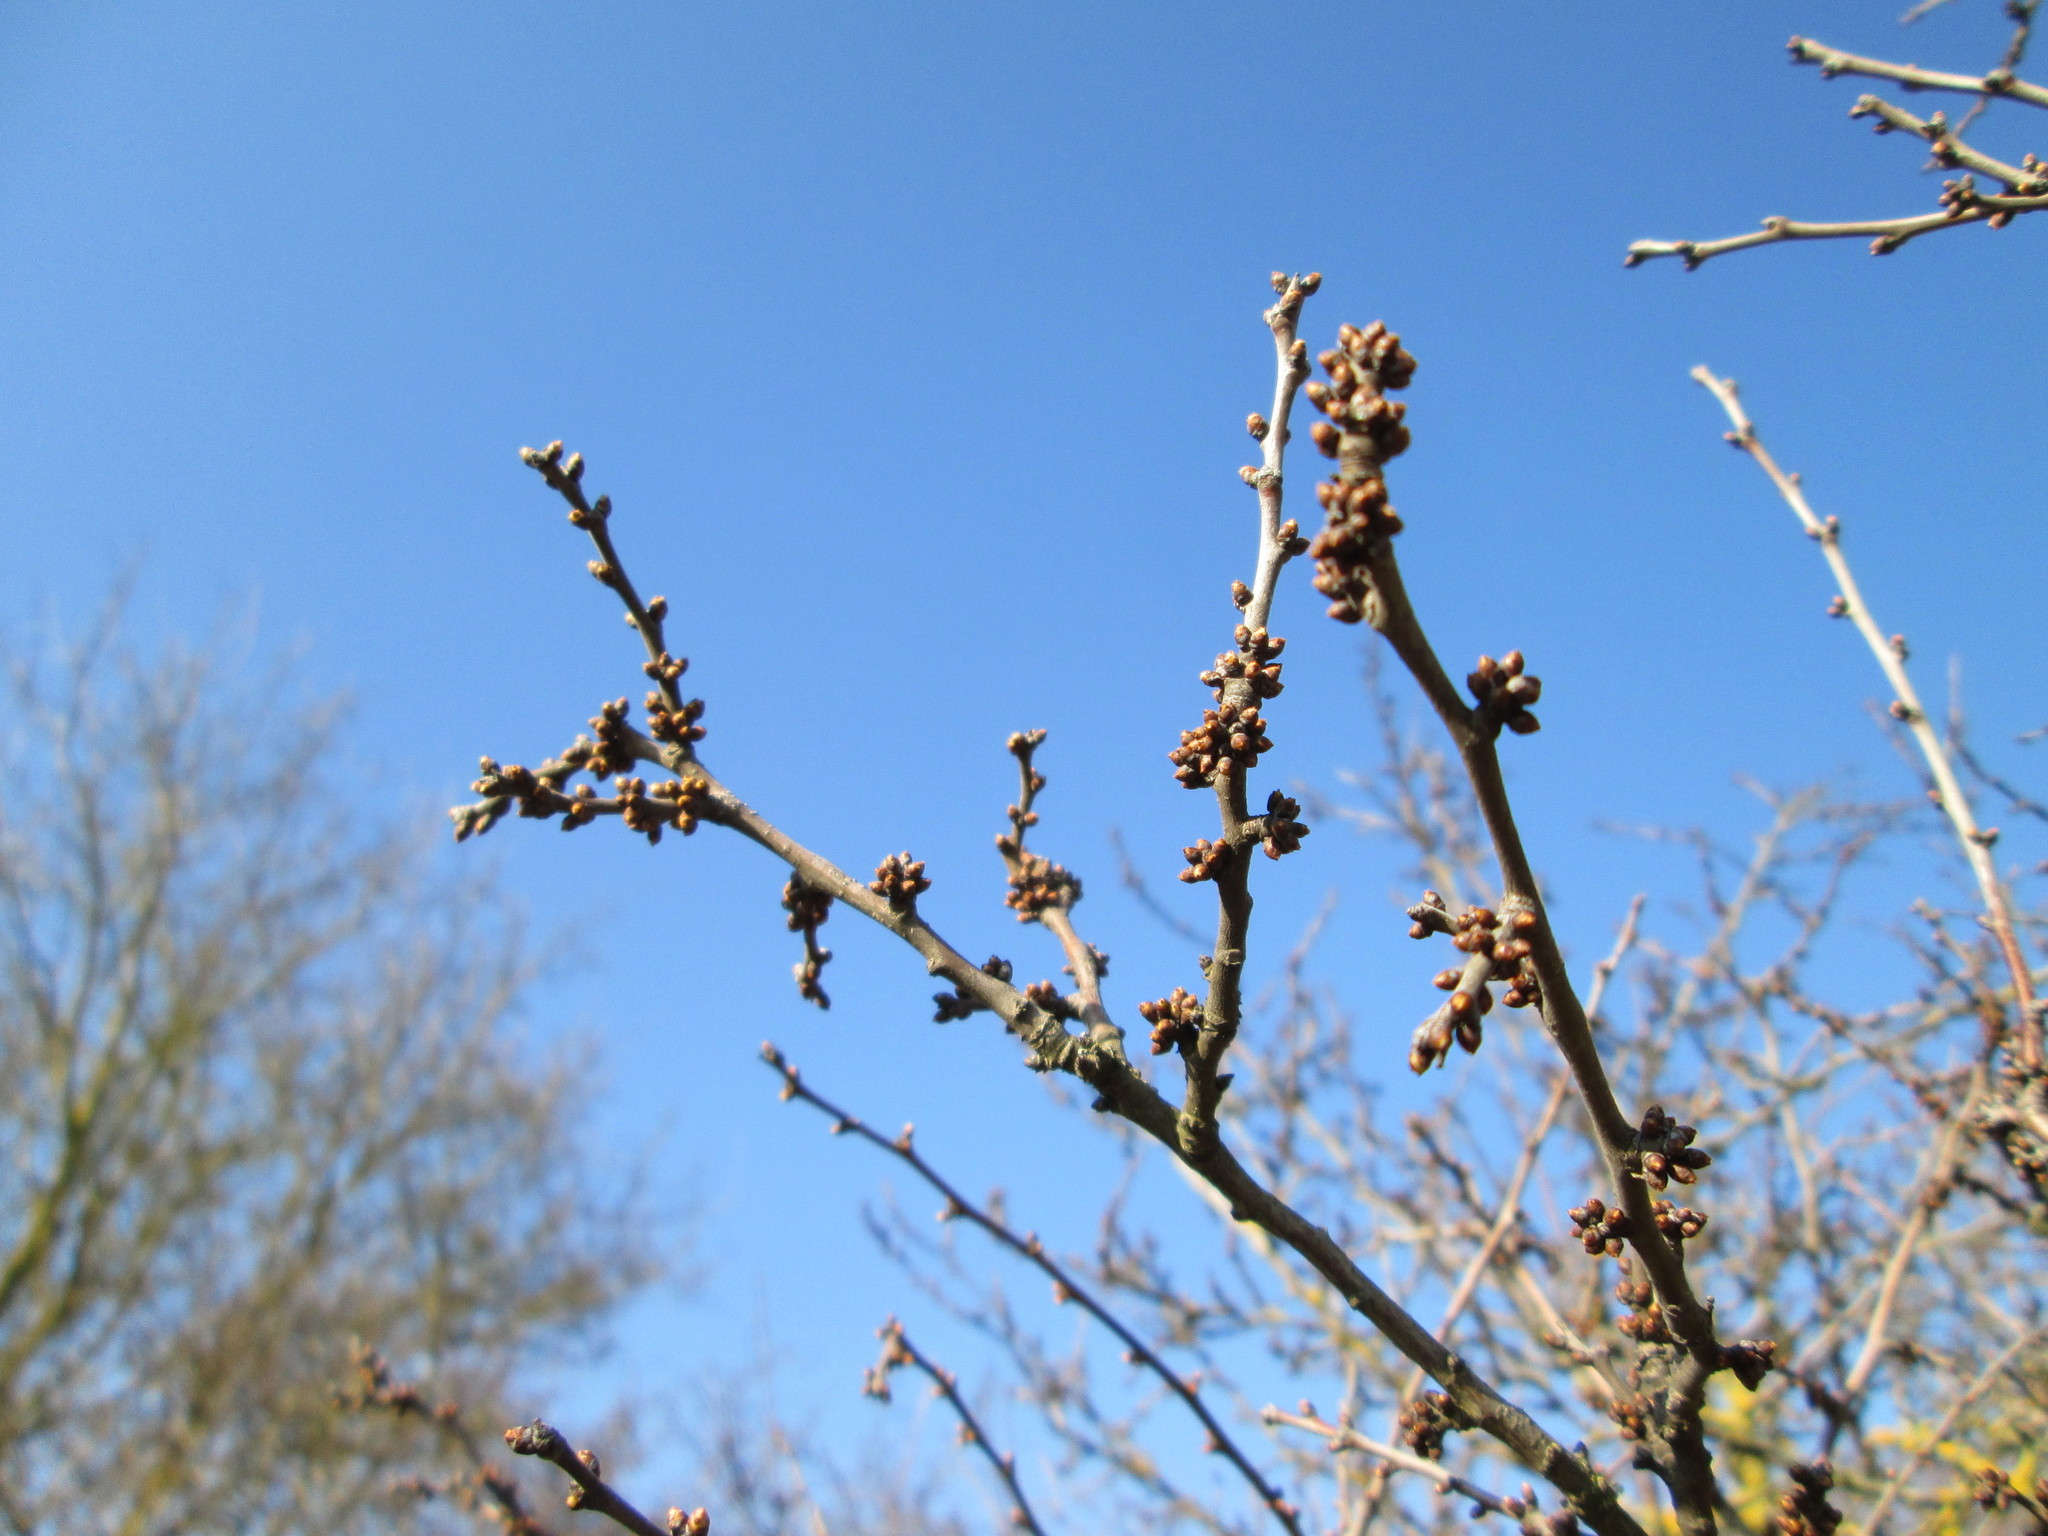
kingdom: Plantae
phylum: Tracheophyta
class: Magnoliopsida
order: Rosales
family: Rosaceae
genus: Prunus
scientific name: Prunus spinosa
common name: Blackthorn
